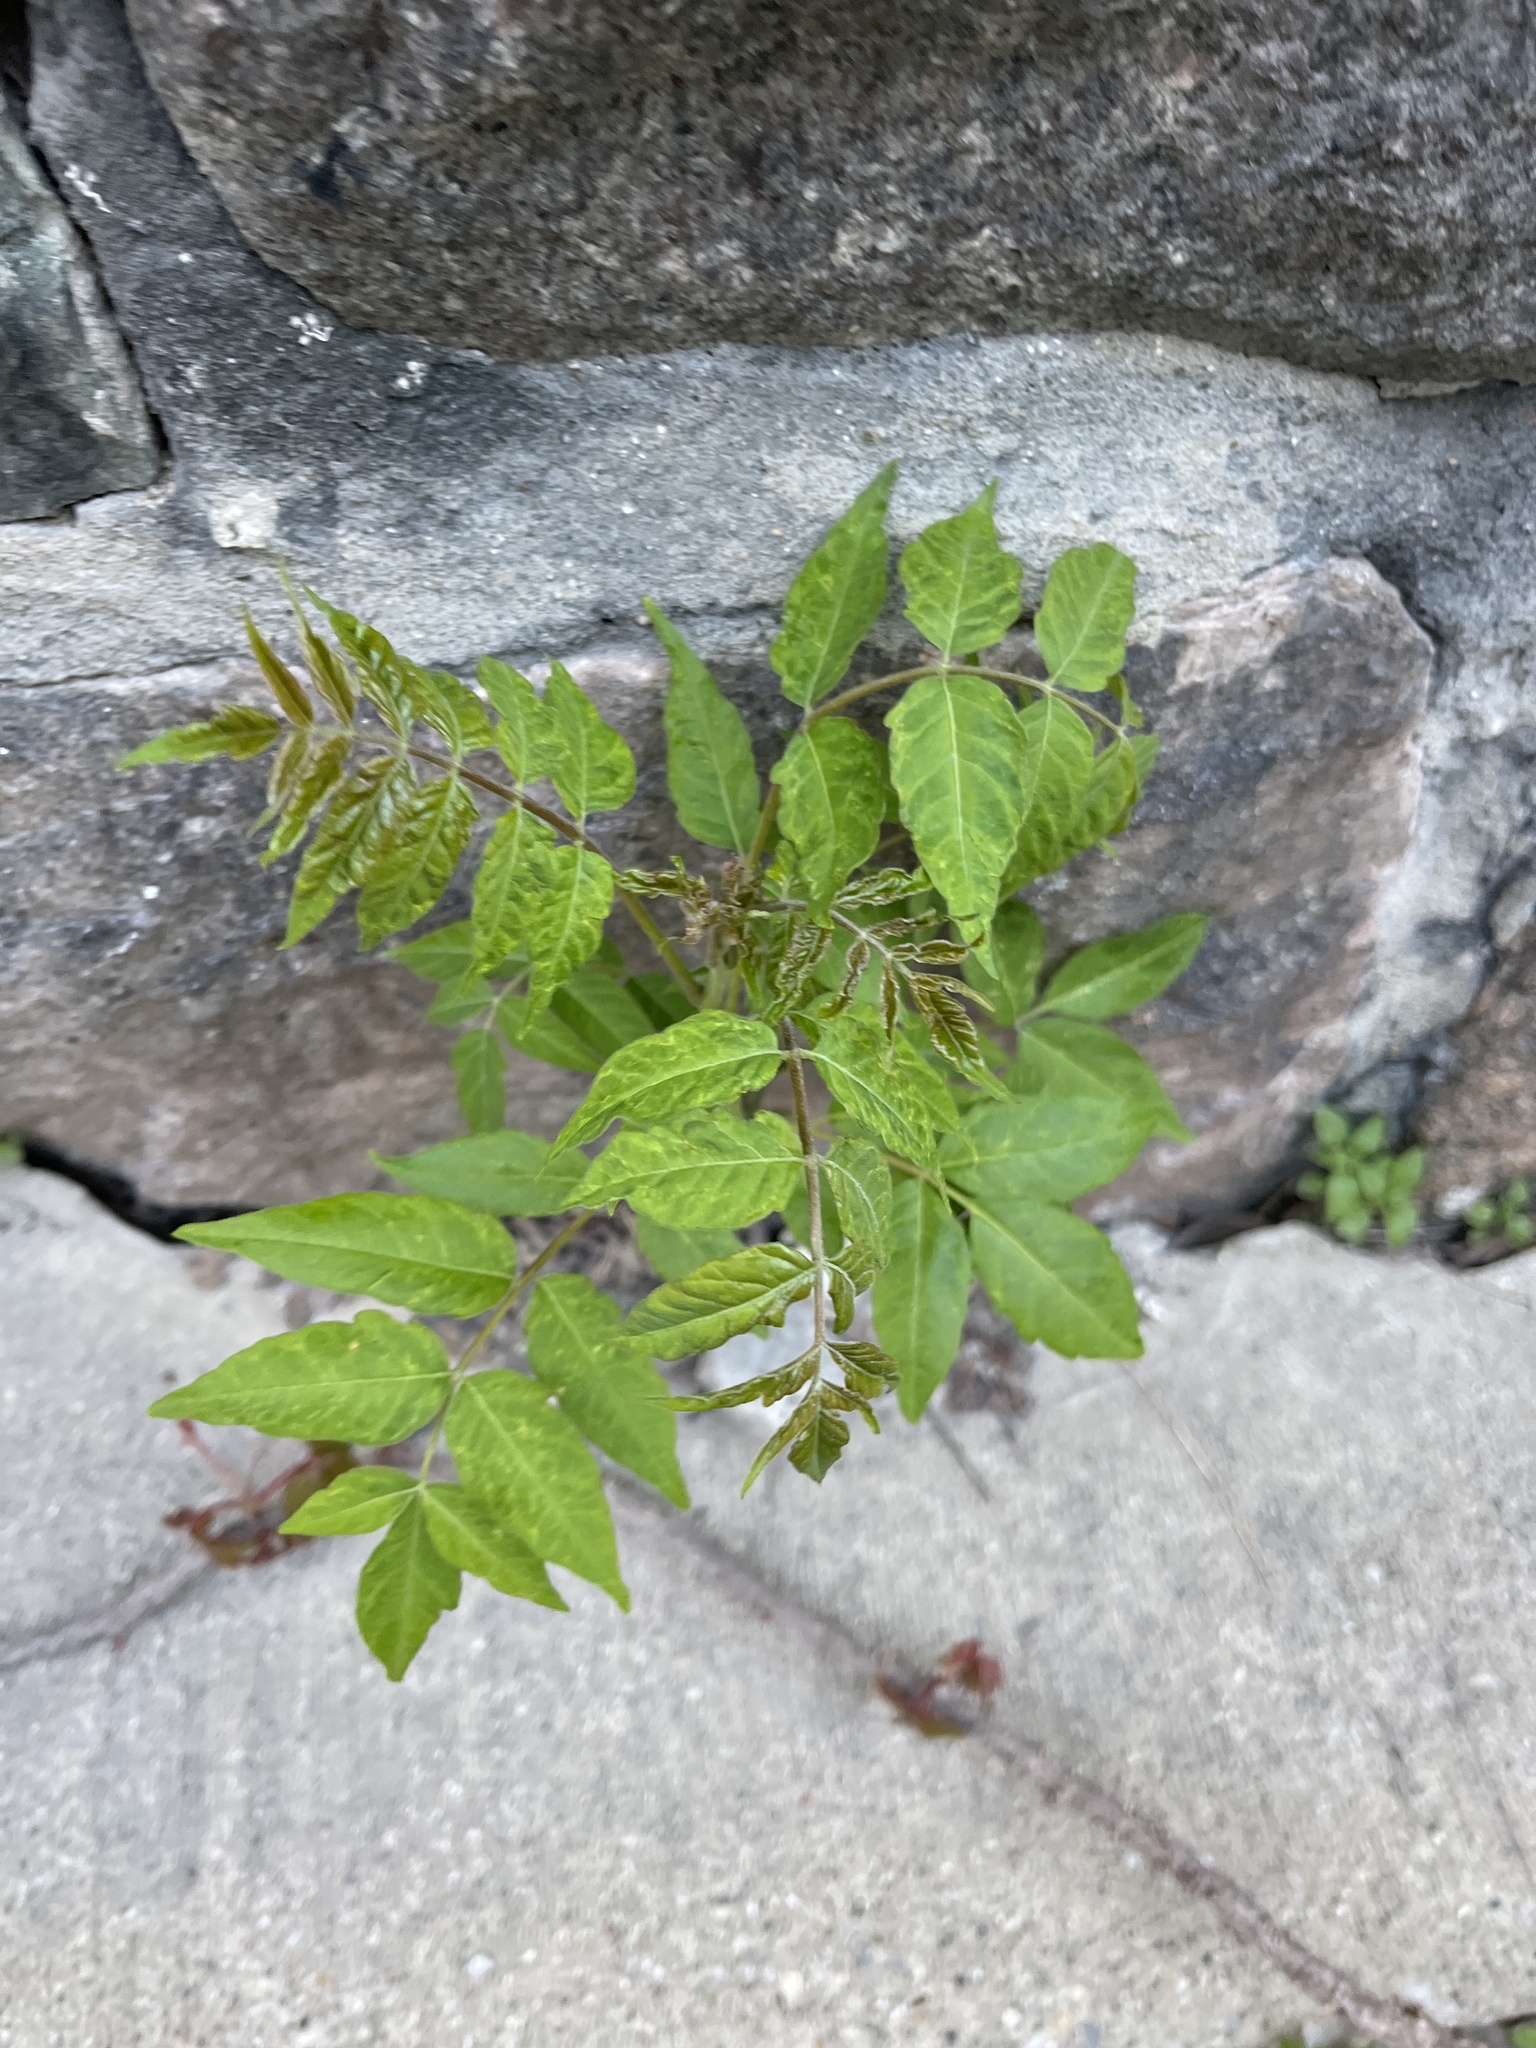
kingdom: Plantae
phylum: Tracheophyta
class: Magnoliopsida
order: Sapindales
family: Simaroubaceae
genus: Ailanthus
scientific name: Ailanthus altissima
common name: Tree-of-heaven
